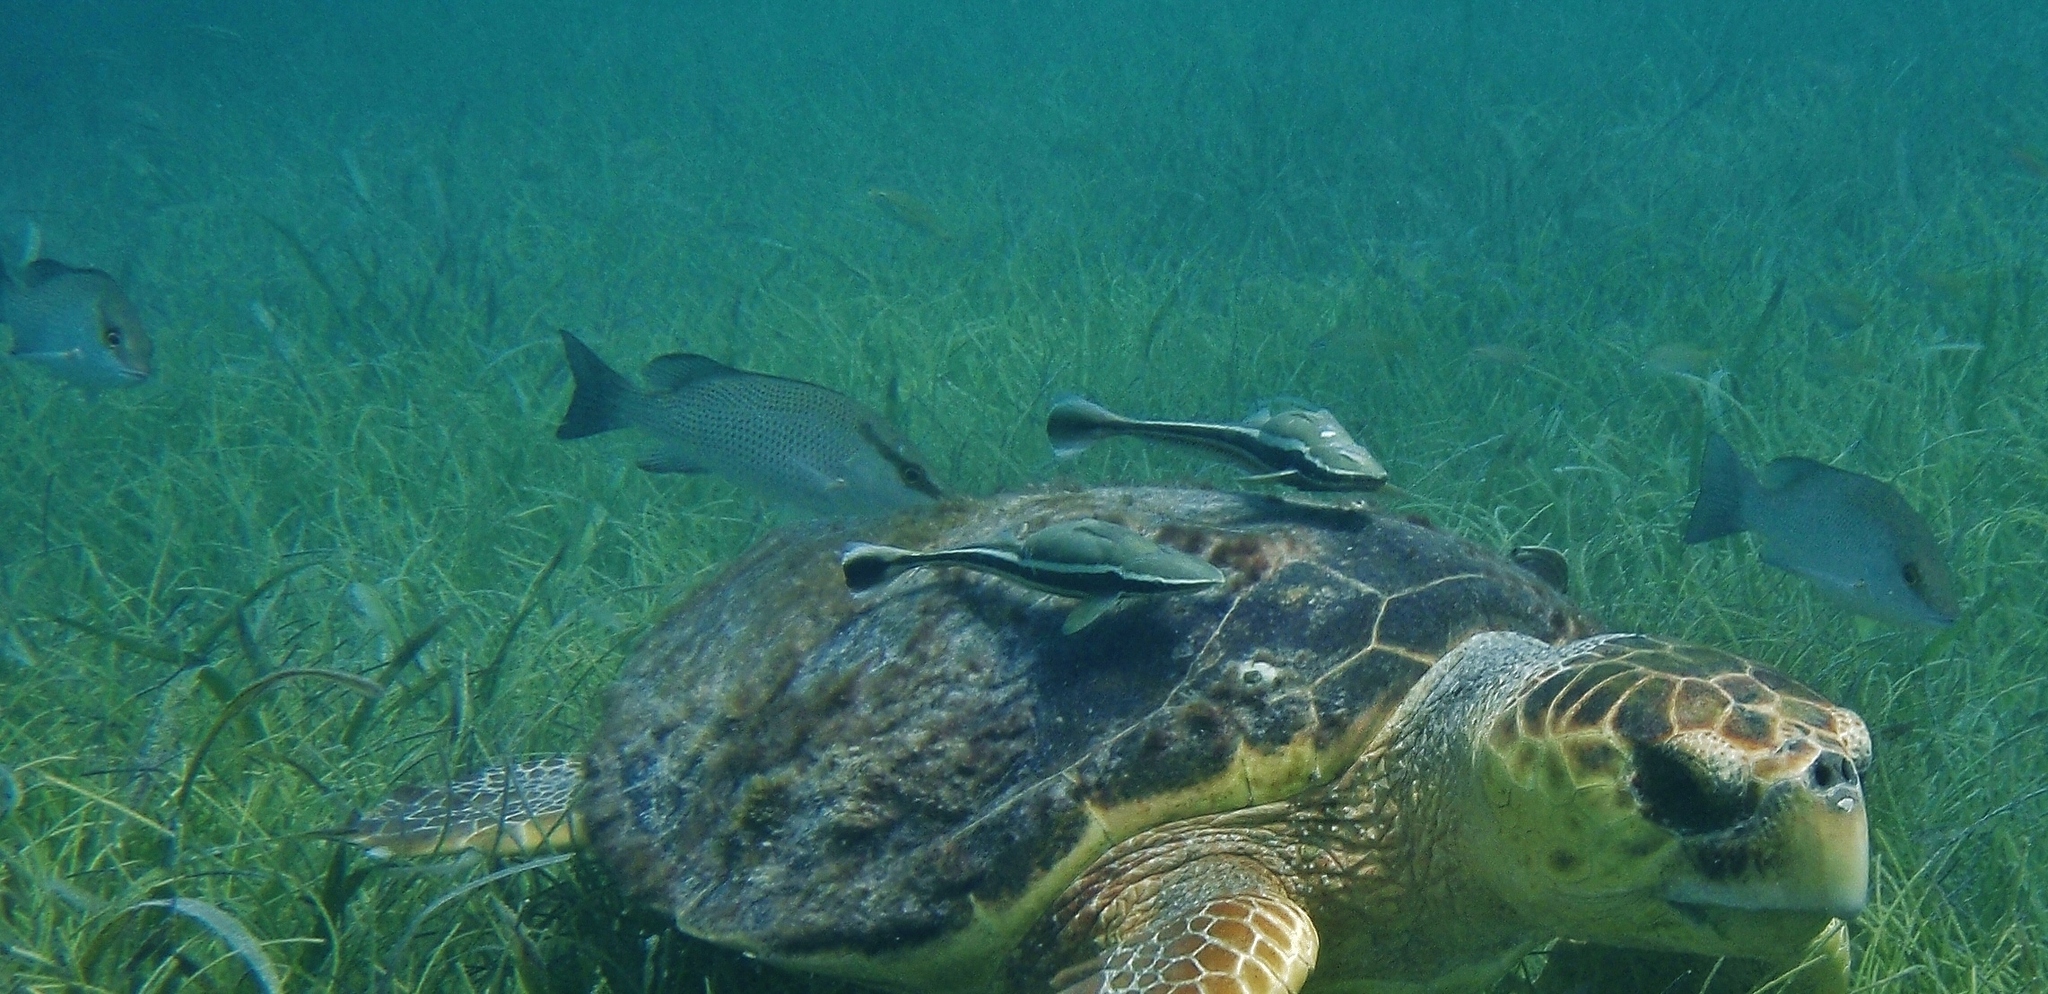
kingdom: Animalia
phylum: Chordata
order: Perciformes
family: Lutjanidae
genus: Lutjanus
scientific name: Lutjanus griseus
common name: Gray snapper
